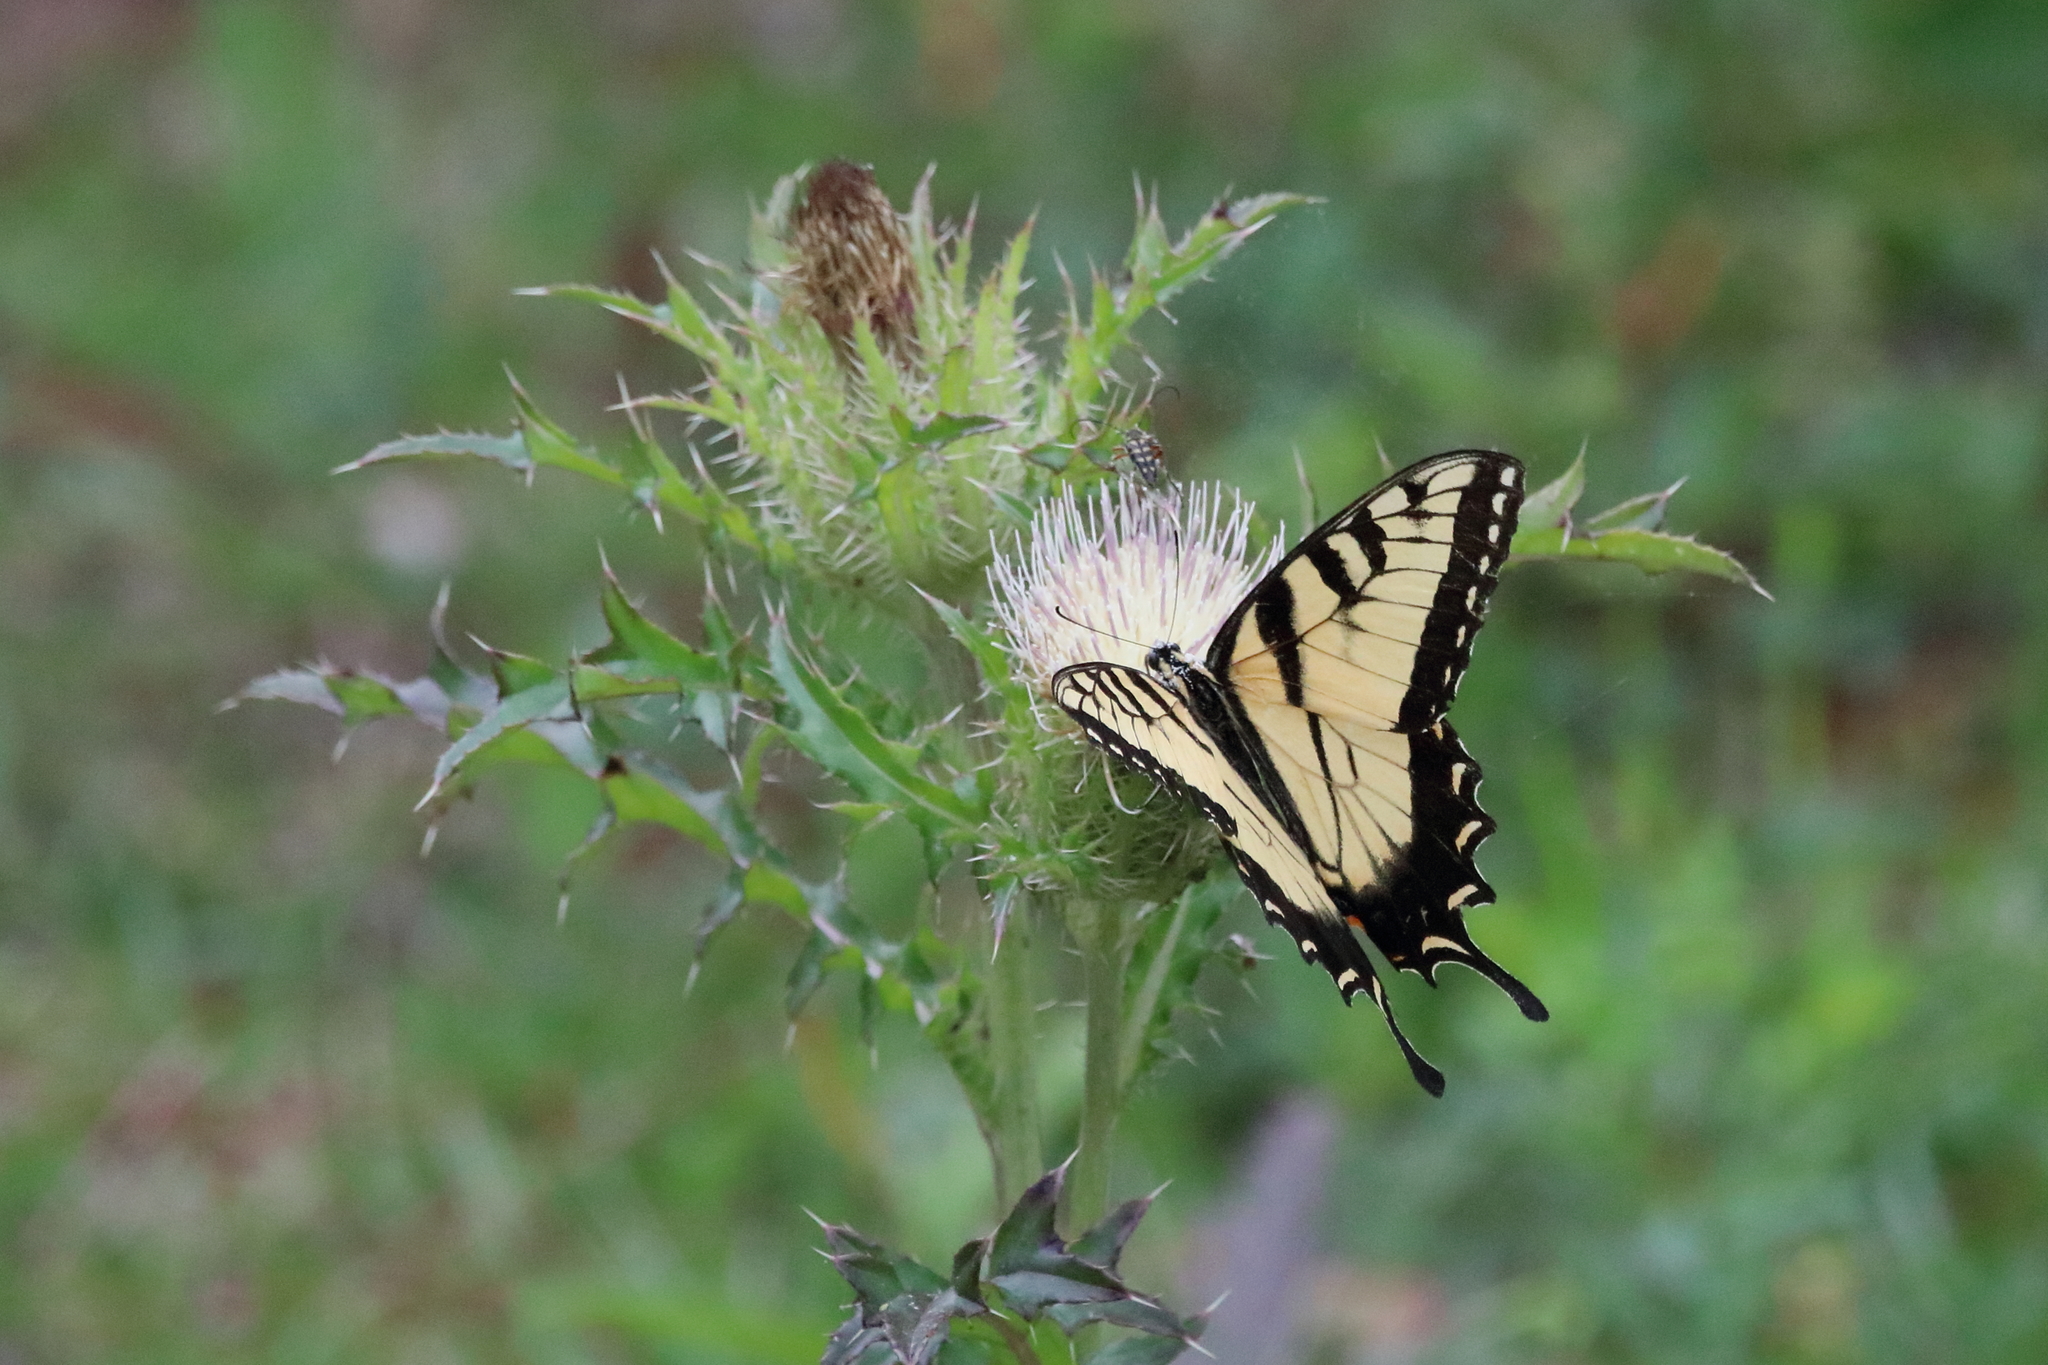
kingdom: Animalia
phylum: Arthropoda
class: Insecta
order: Lepidoptera
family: Papilionidae
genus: Papilio
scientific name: Papilio glaucus
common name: Tiger swallowtail
